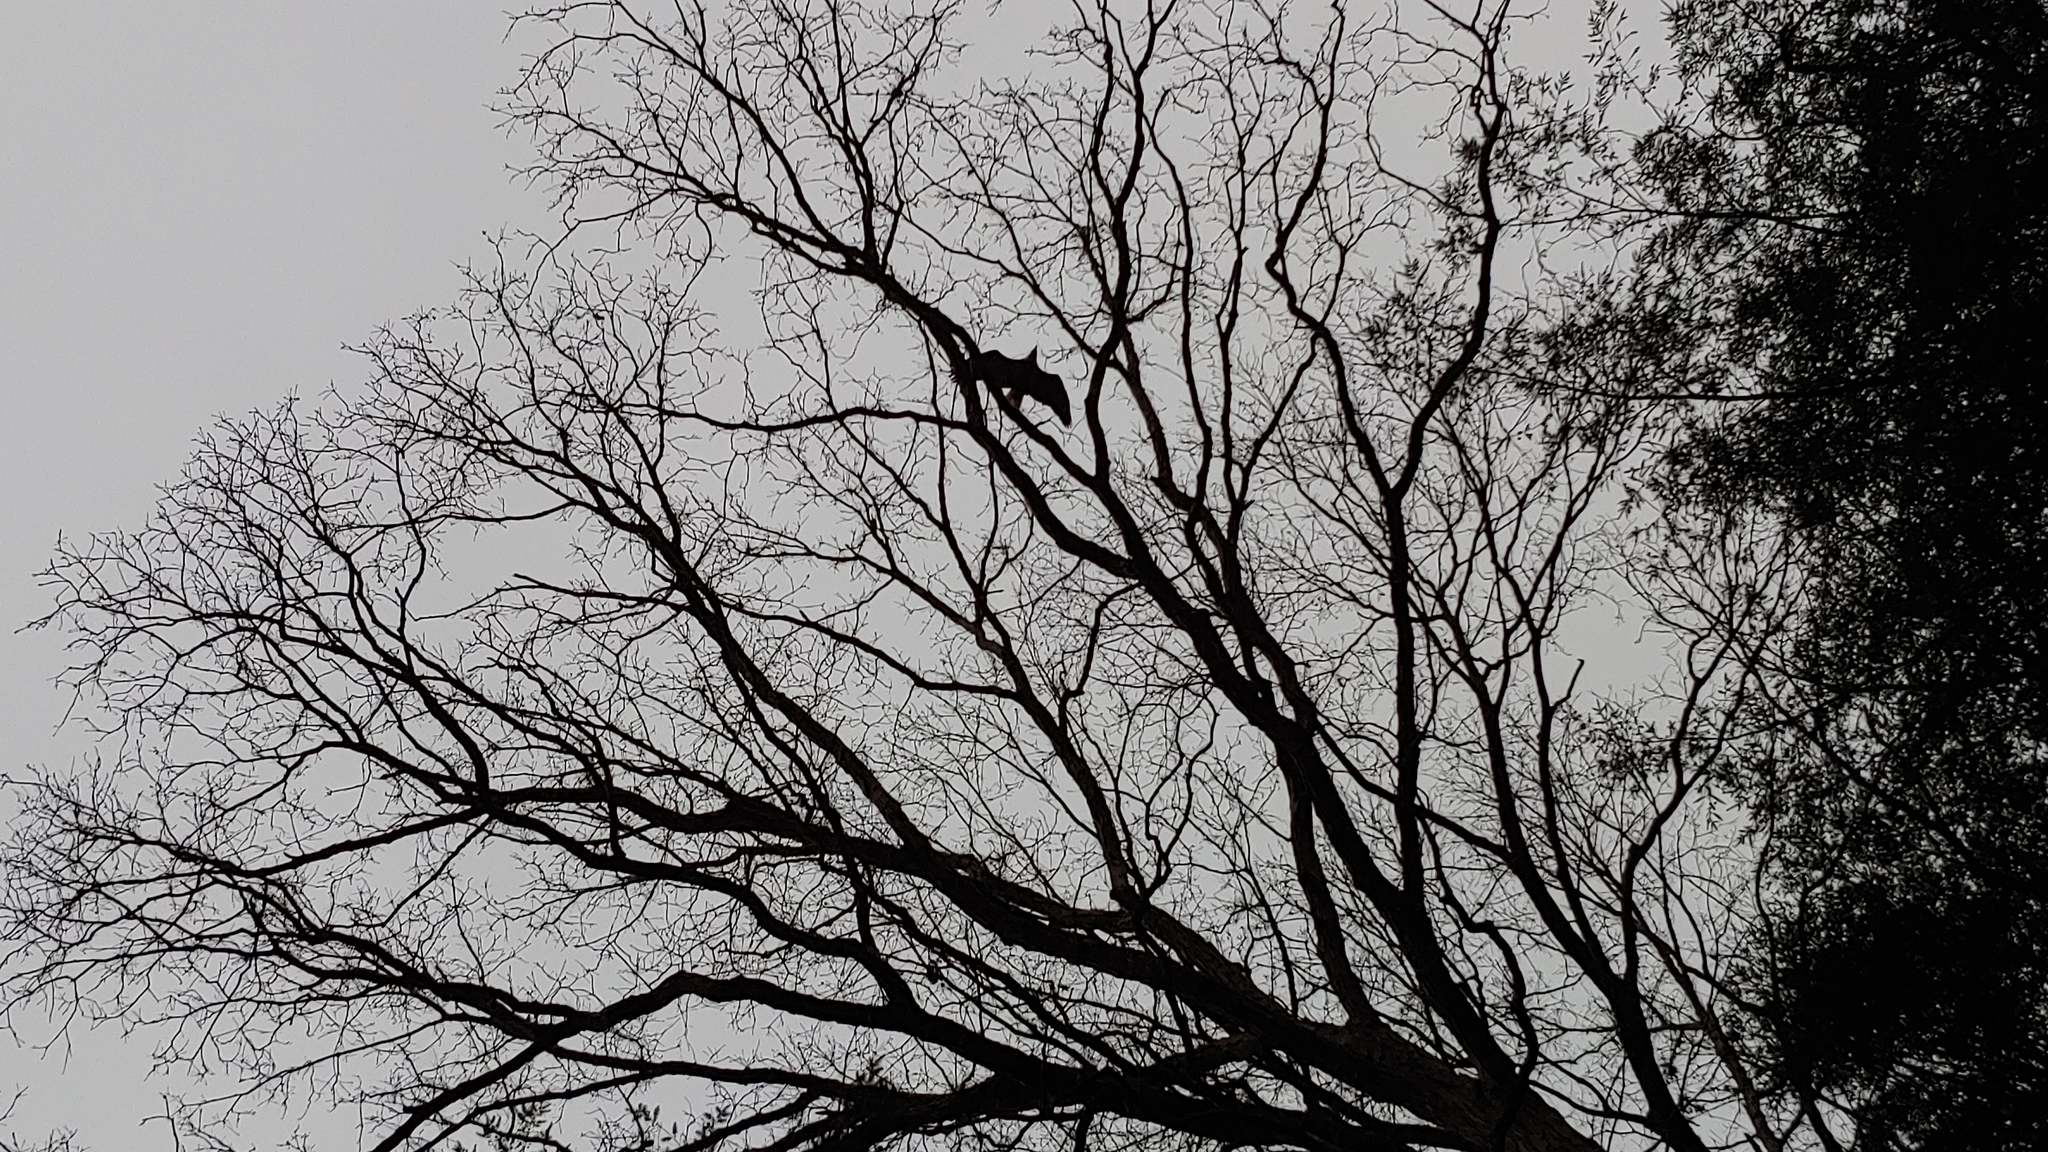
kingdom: Animalia
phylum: Chordata
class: Aves
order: Accipitriformes
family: Accipitridae
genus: Haliaeetus
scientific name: Haliaeetus leucocephalus
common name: Bald eagle
